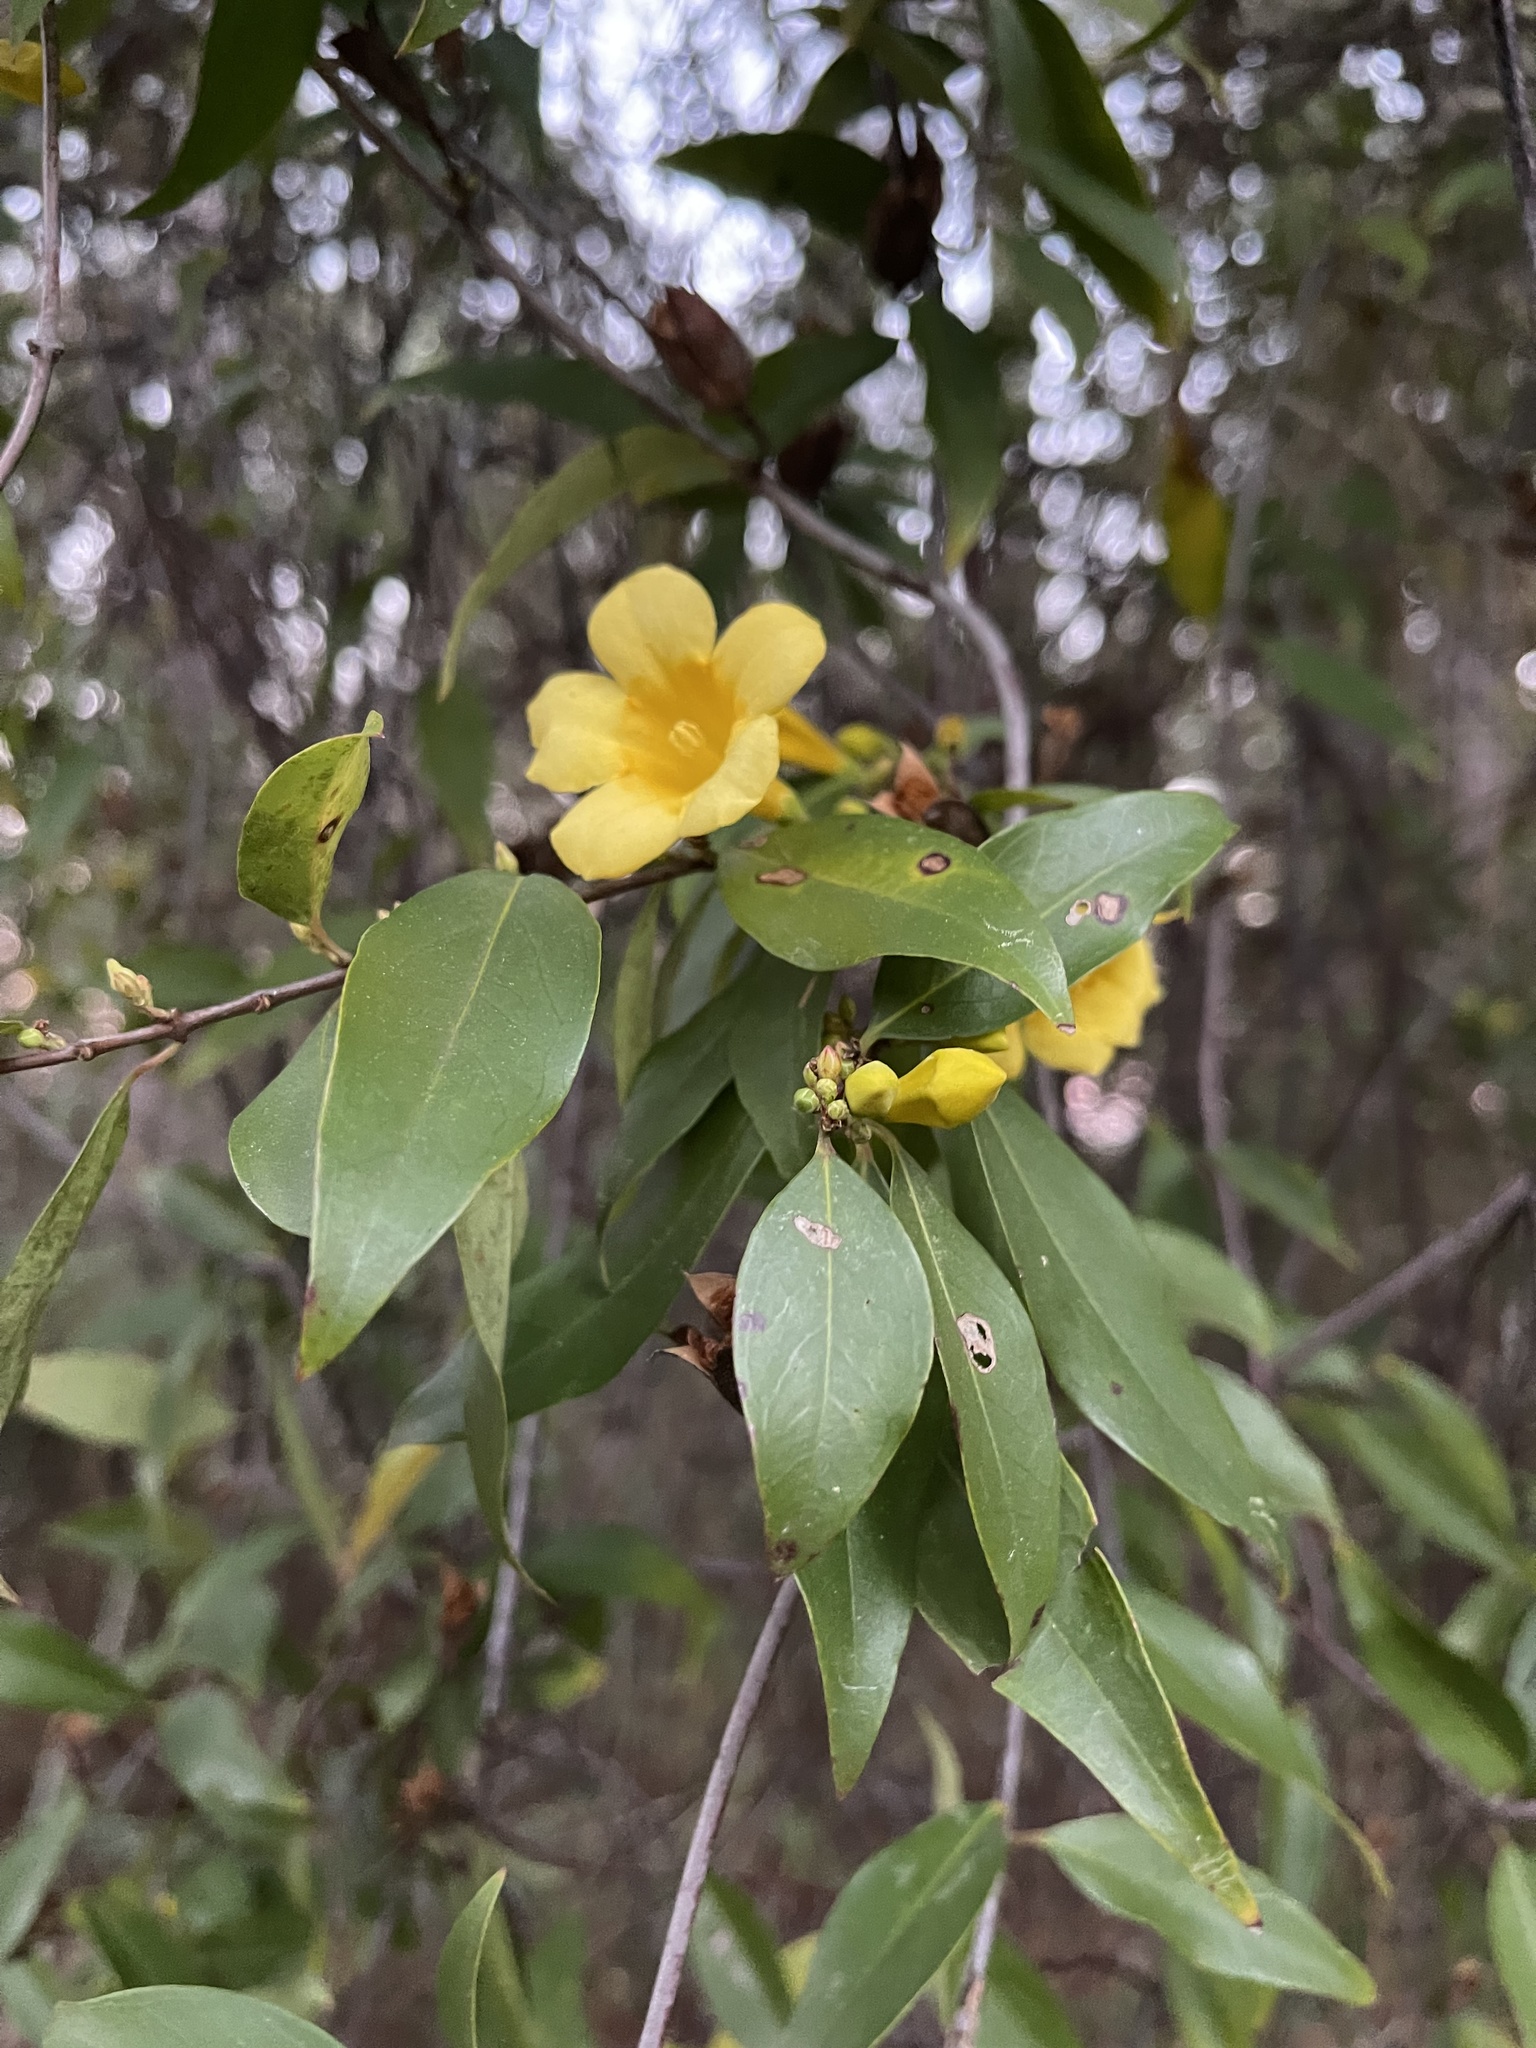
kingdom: Plantae
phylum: Tracheophyta
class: Magnoliopsida
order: Gentianales
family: Gelsemiaceae
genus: Gelsemium
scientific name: Gelsemium sempervirens
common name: Carolina-jasmine
